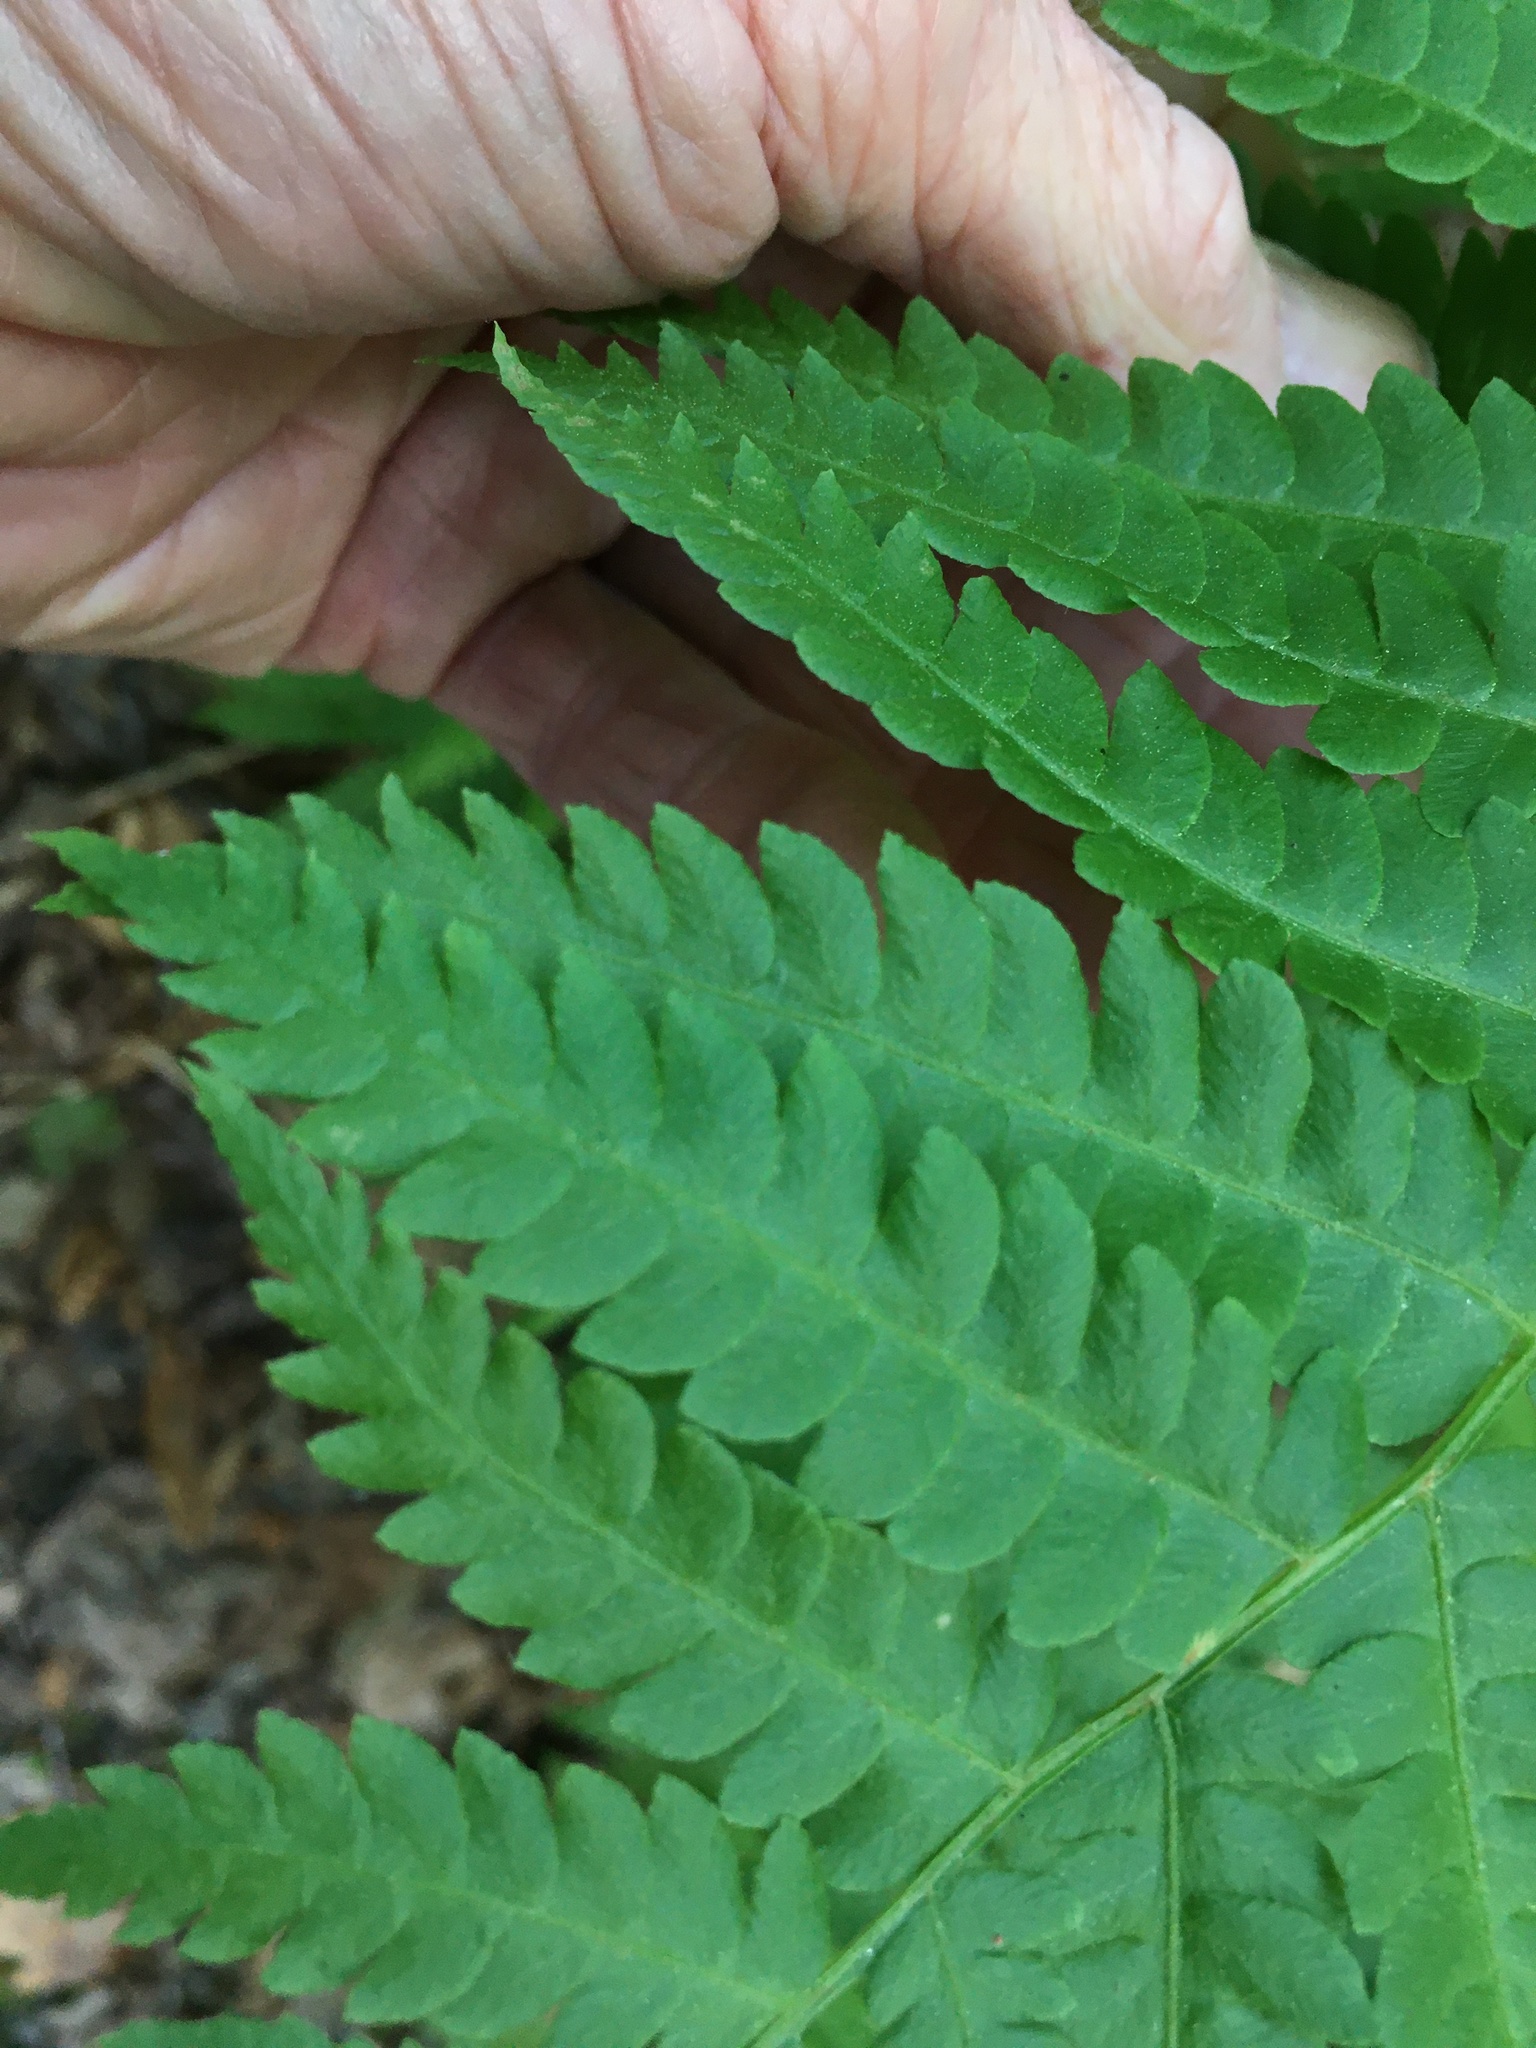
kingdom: Plantae
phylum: Tracheophyta
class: Polypodiopsida
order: Osmundales
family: Osmundaceae
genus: Osmundastrum
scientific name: Osmundastrum cinnamomeum
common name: Cinnamon fern
